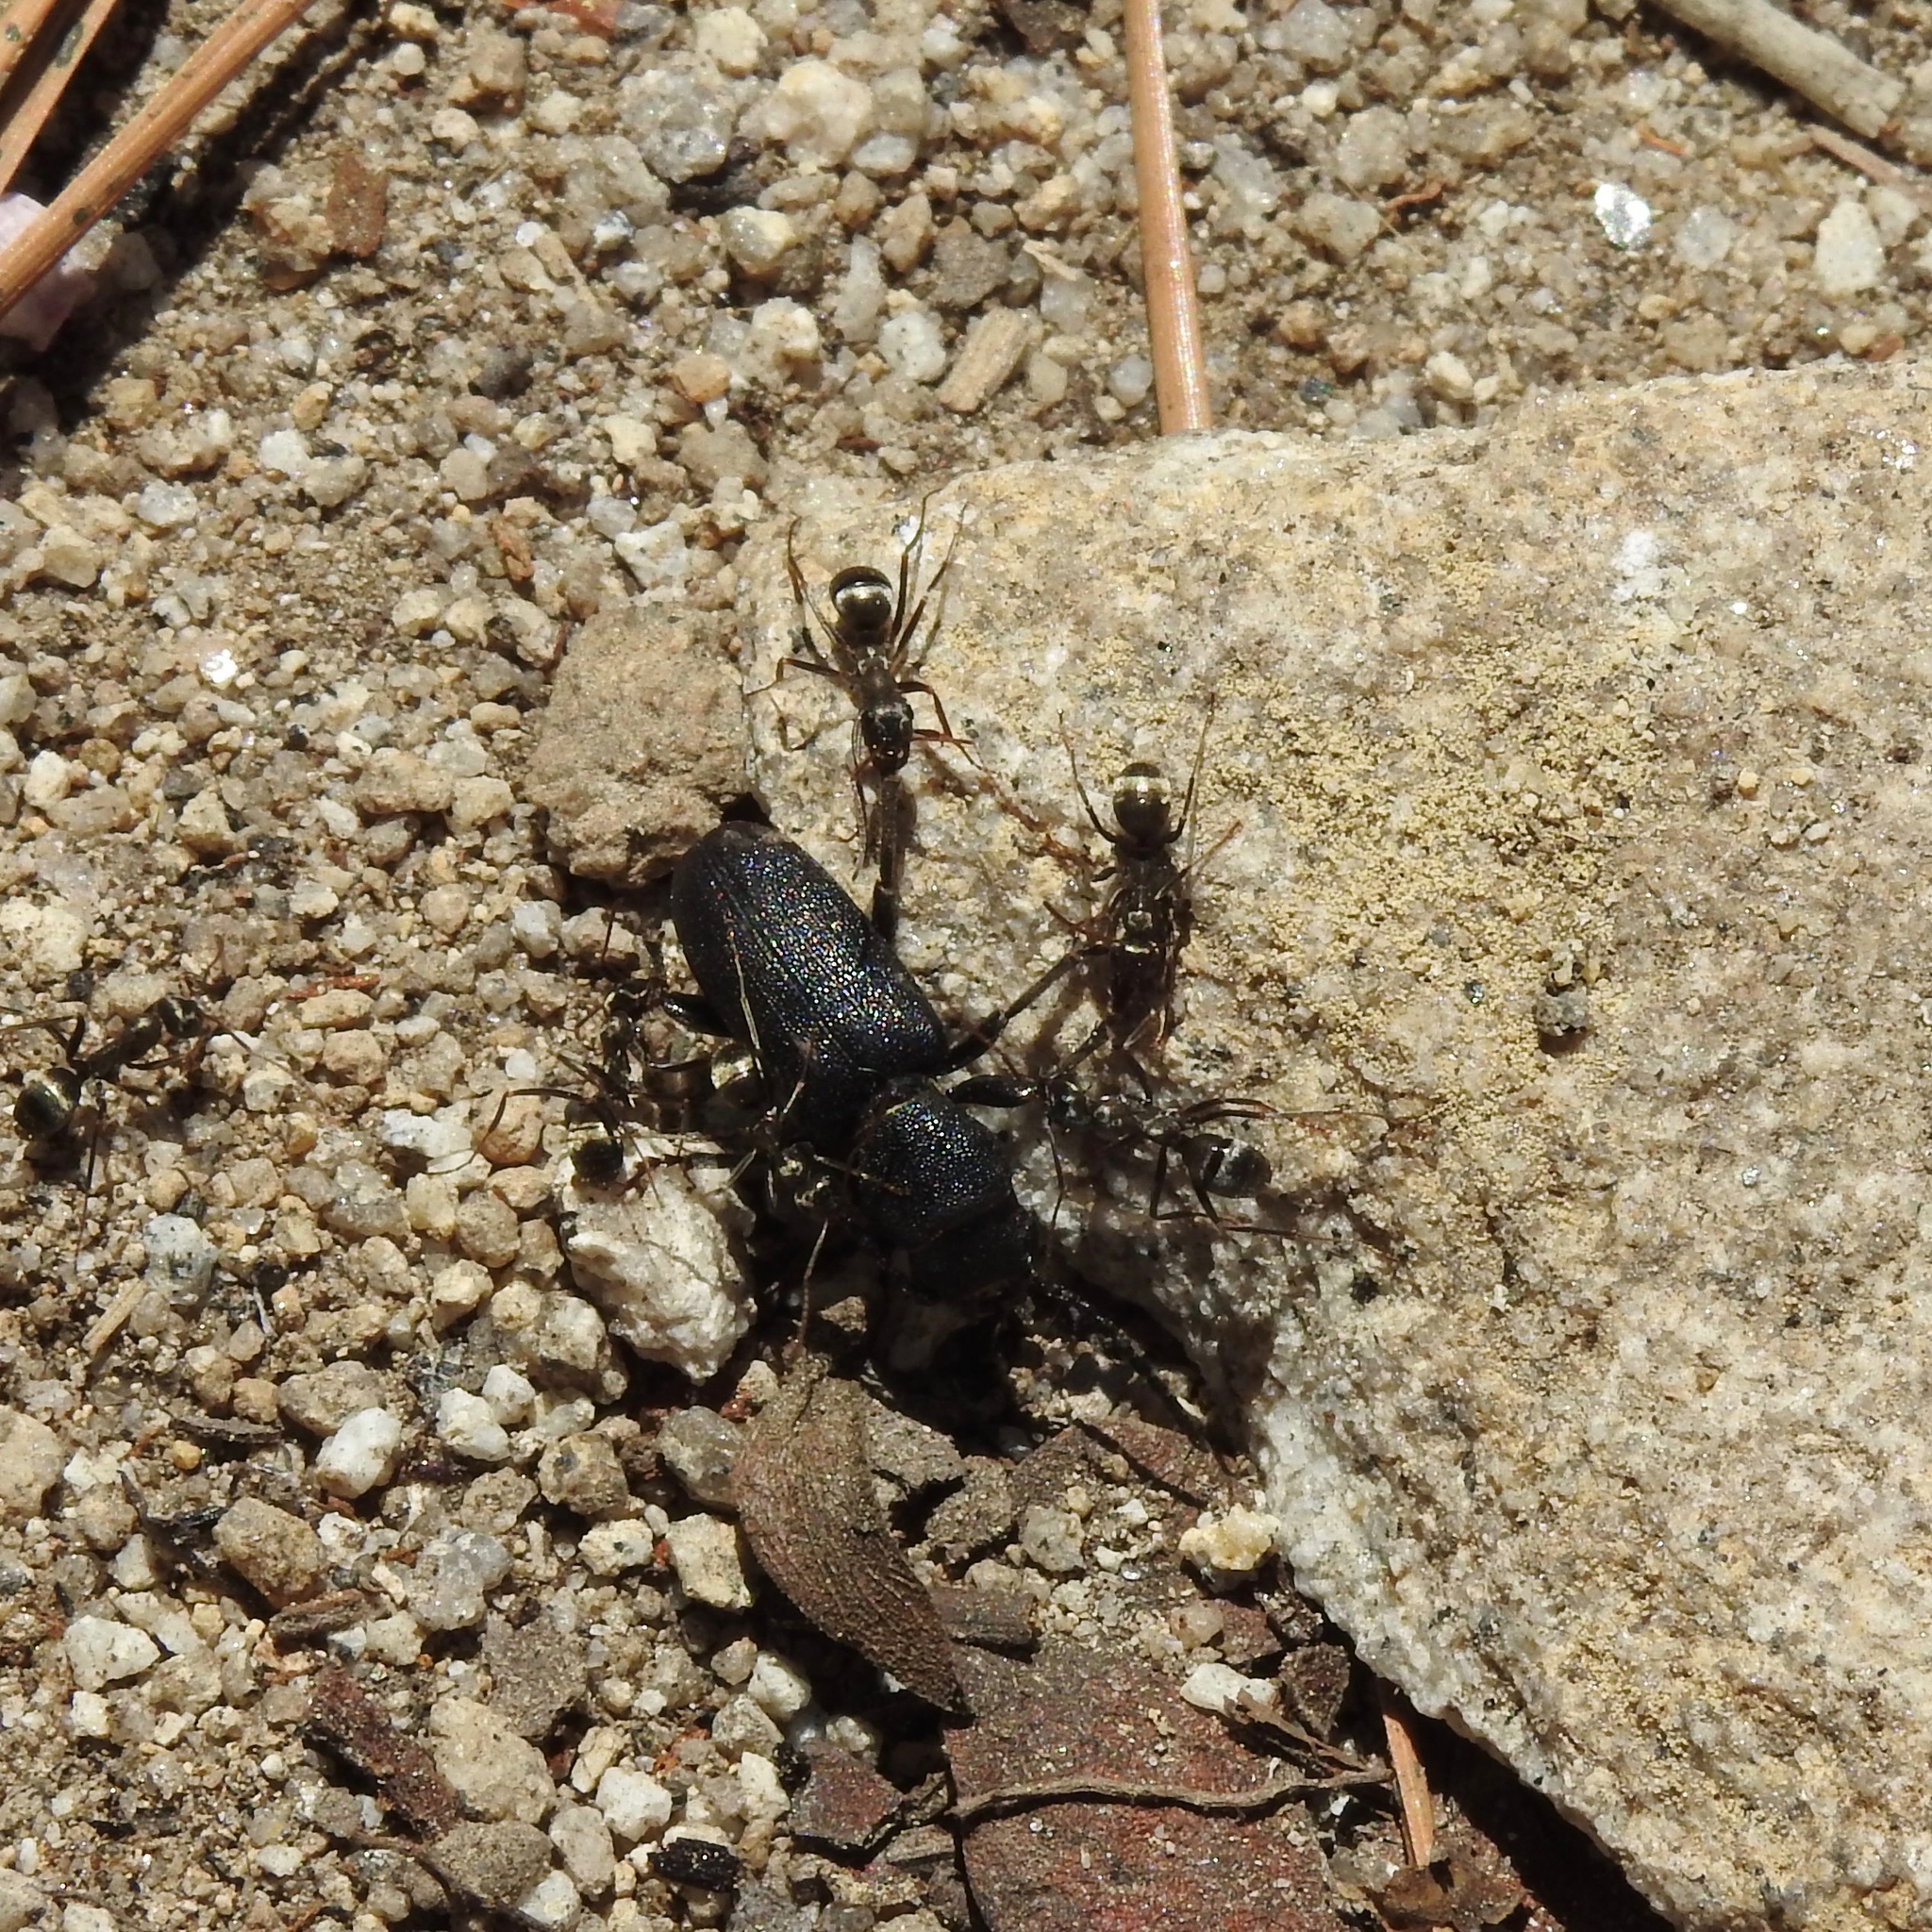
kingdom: Animalia
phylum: Arthropoda
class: Insecta
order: Coleoptera
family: Cerambycidae
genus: Neospondylis
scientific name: Neospondylis upiformis
